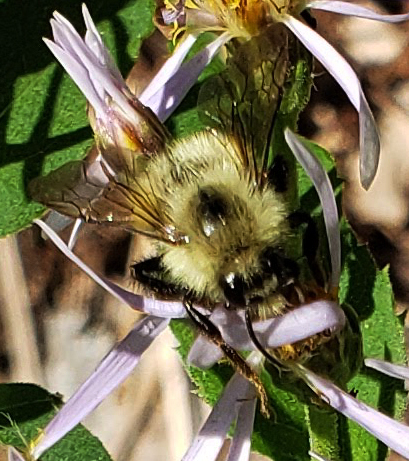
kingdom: Animalia
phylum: Arthropoda
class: Insecta
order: Hymenoptera
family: Apidae
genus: Pyrobombus
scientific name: Pyrobombus
